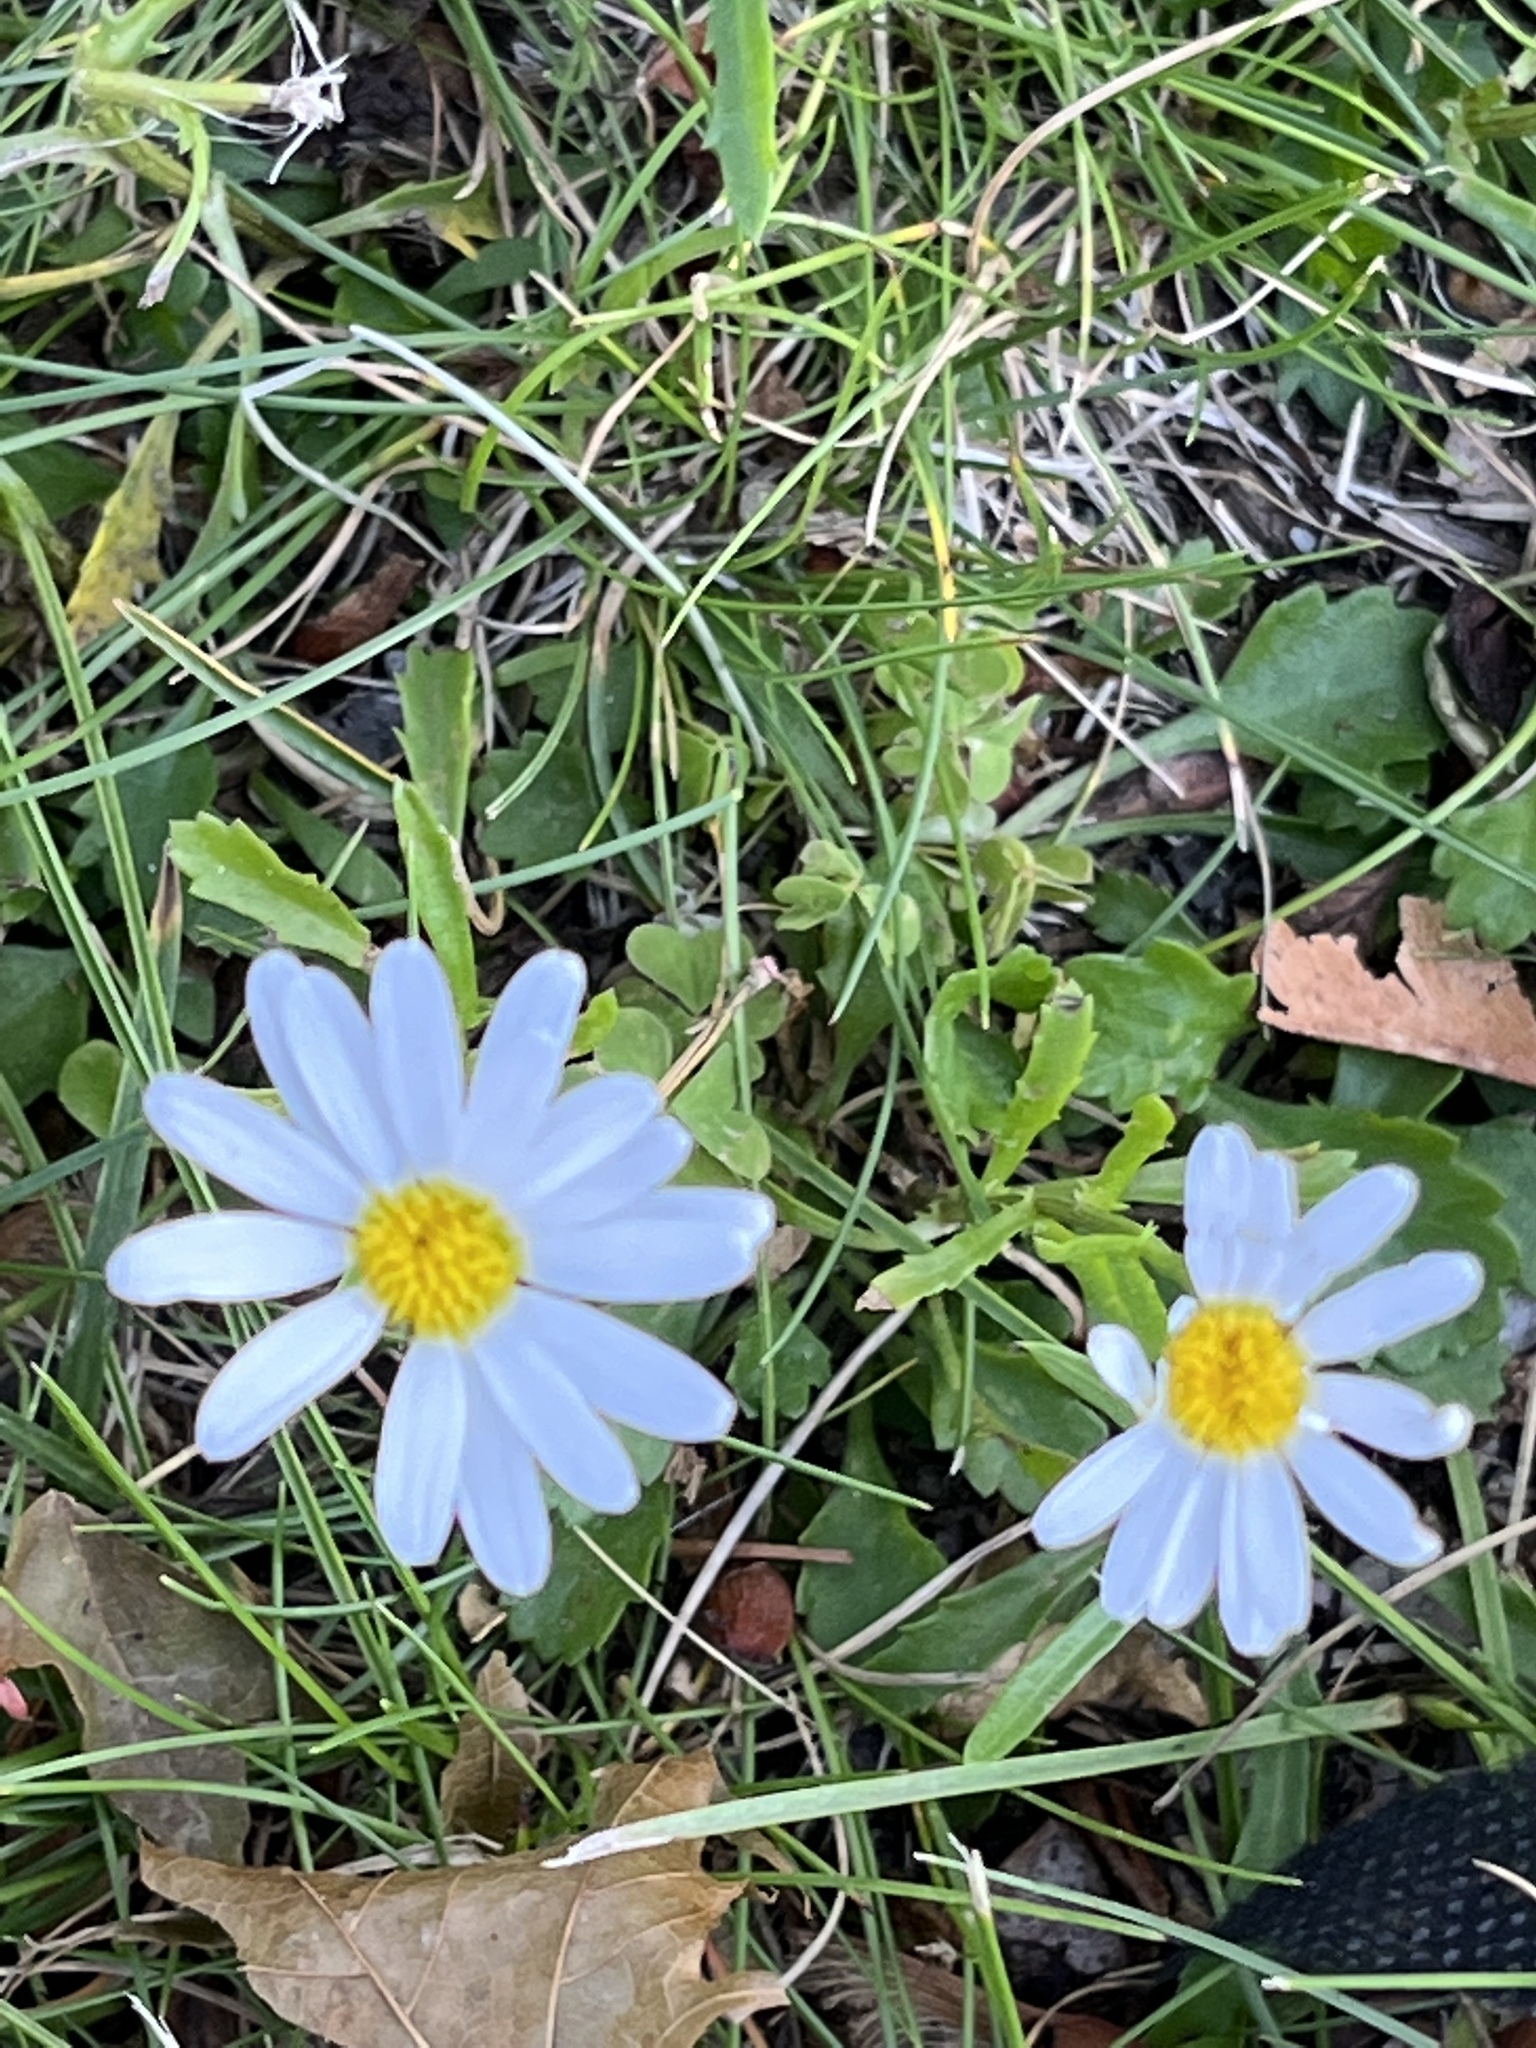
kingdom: Plantae
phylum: Tracheophyta
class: Magnoliopsida
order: Asterales
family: Asteraceae
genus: Leucanthemum
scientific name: Leucanthemum vulgare
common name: Oxeye daisy
